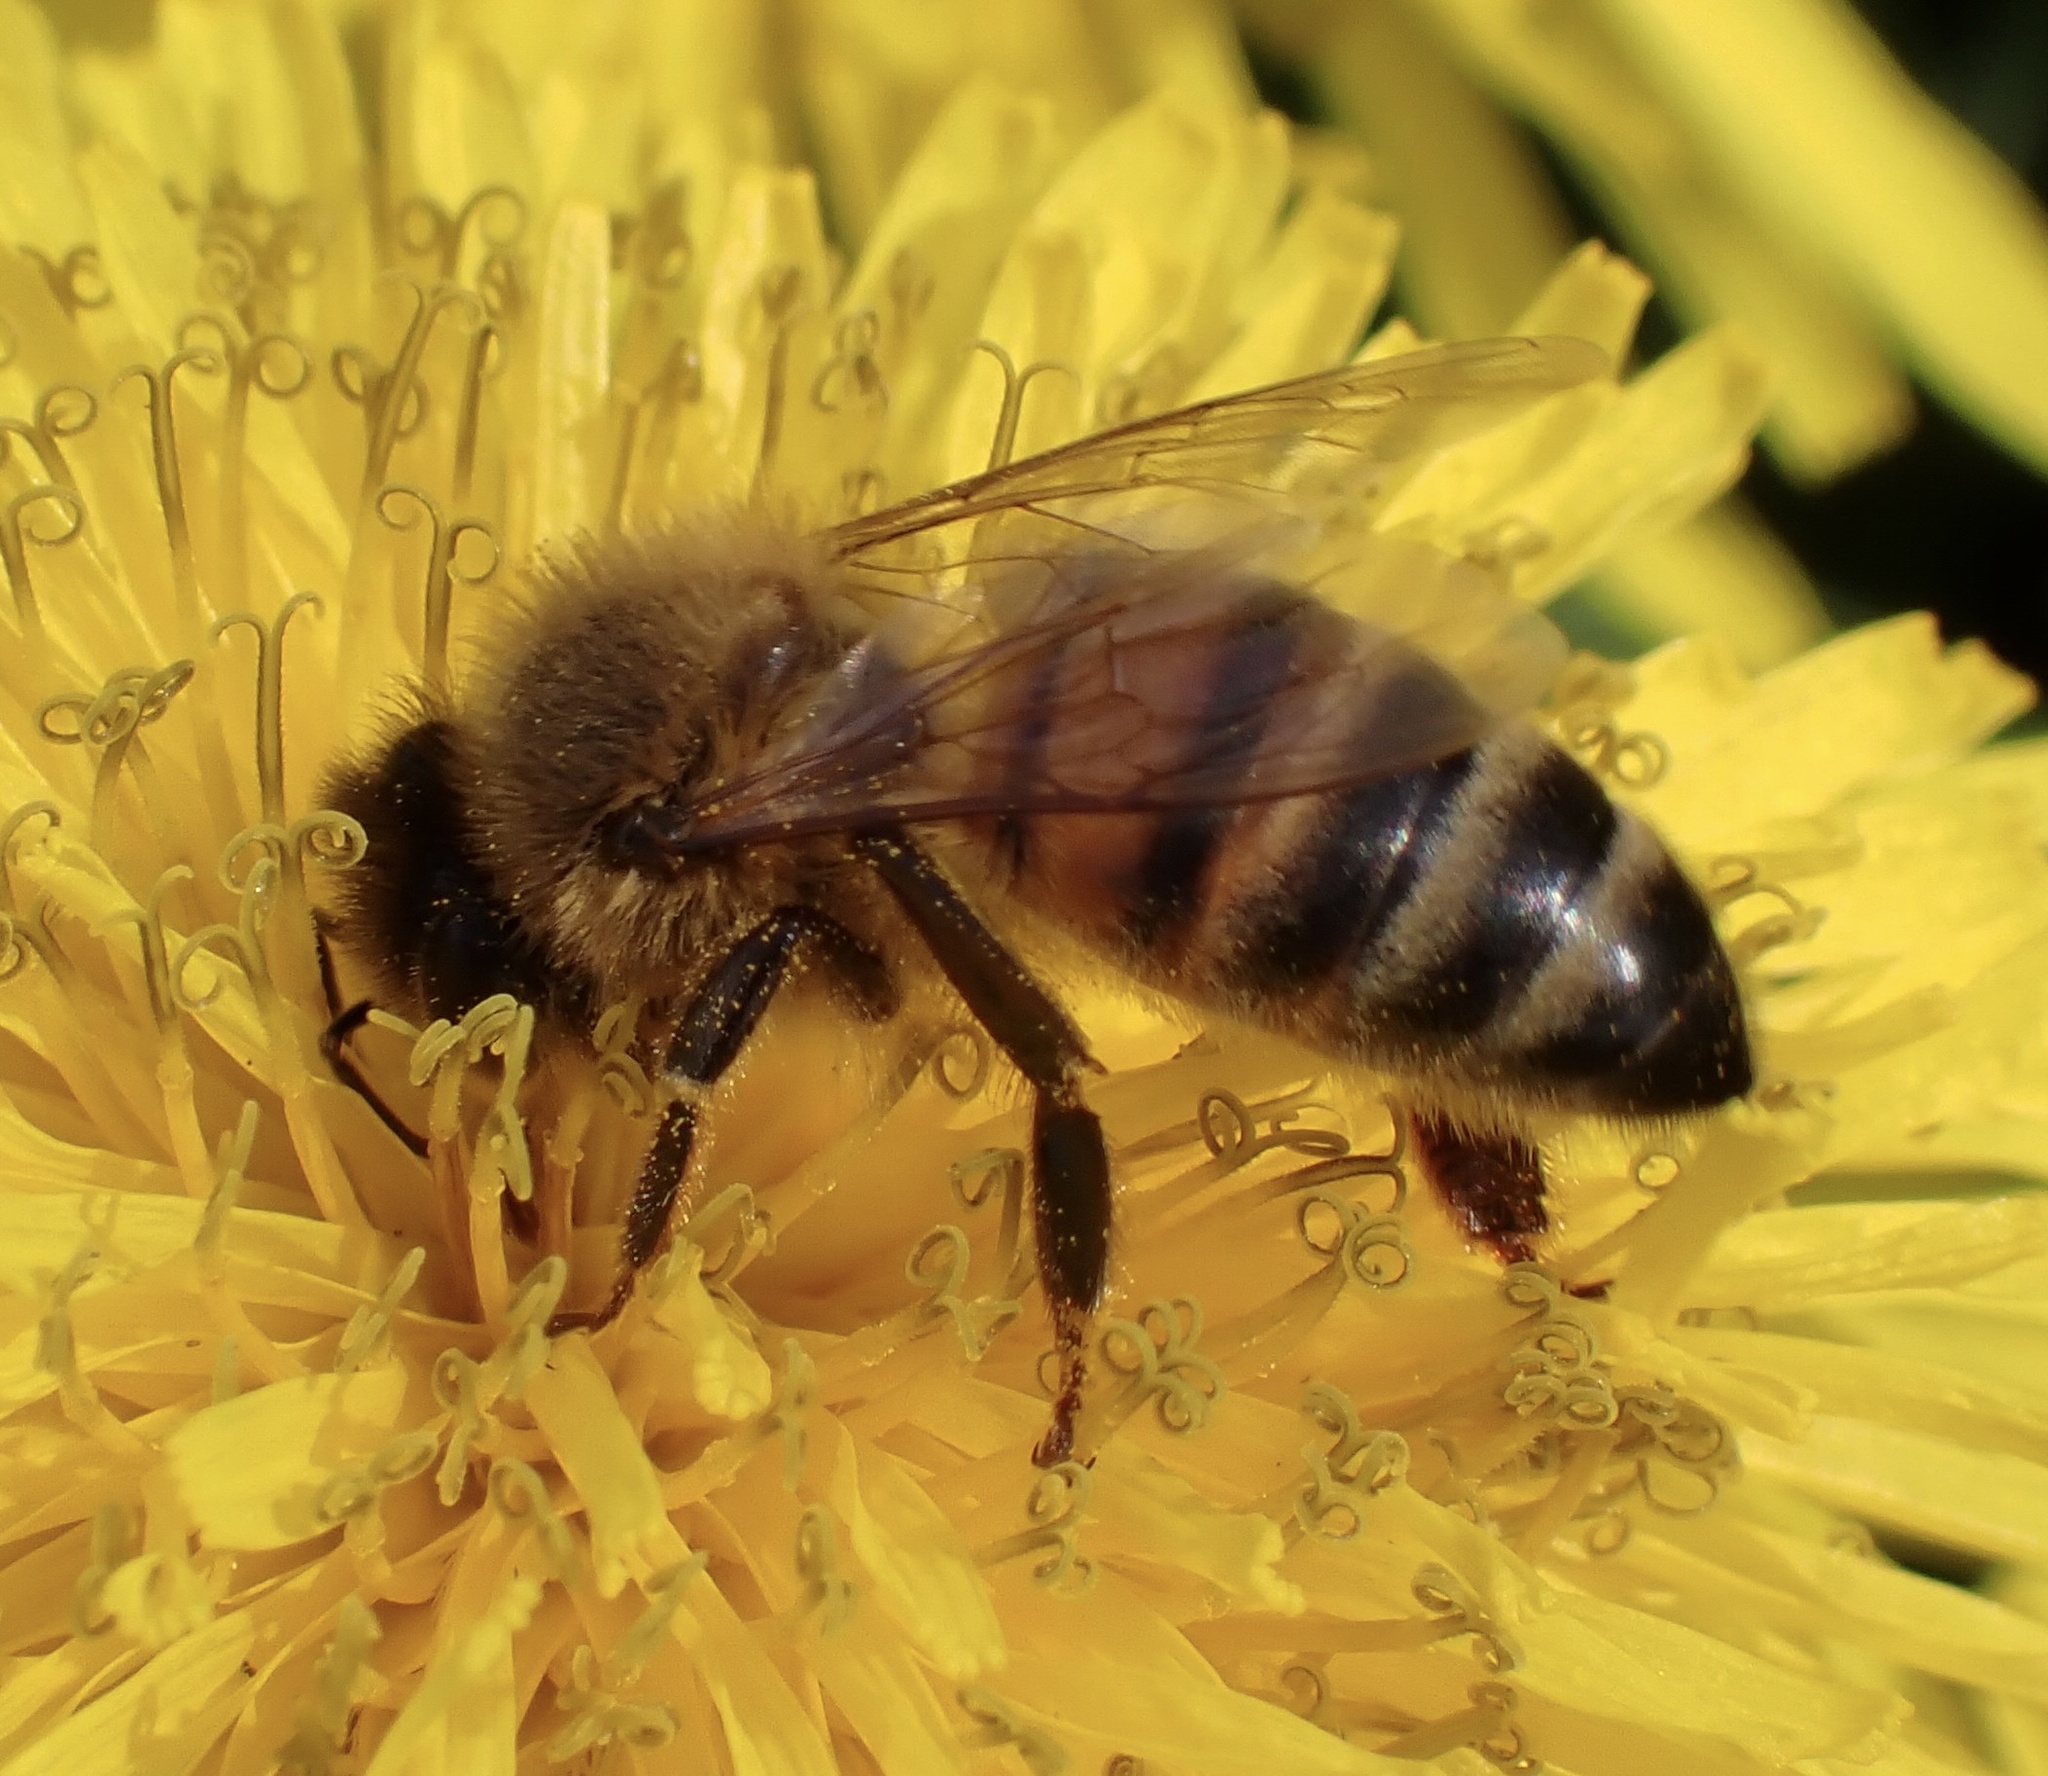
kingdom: Animalia
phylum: Arthropoda
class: Insecta
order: Hymenoptera
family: Apidae
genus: Apis
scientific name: Apis mellifera
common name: Honey bee
